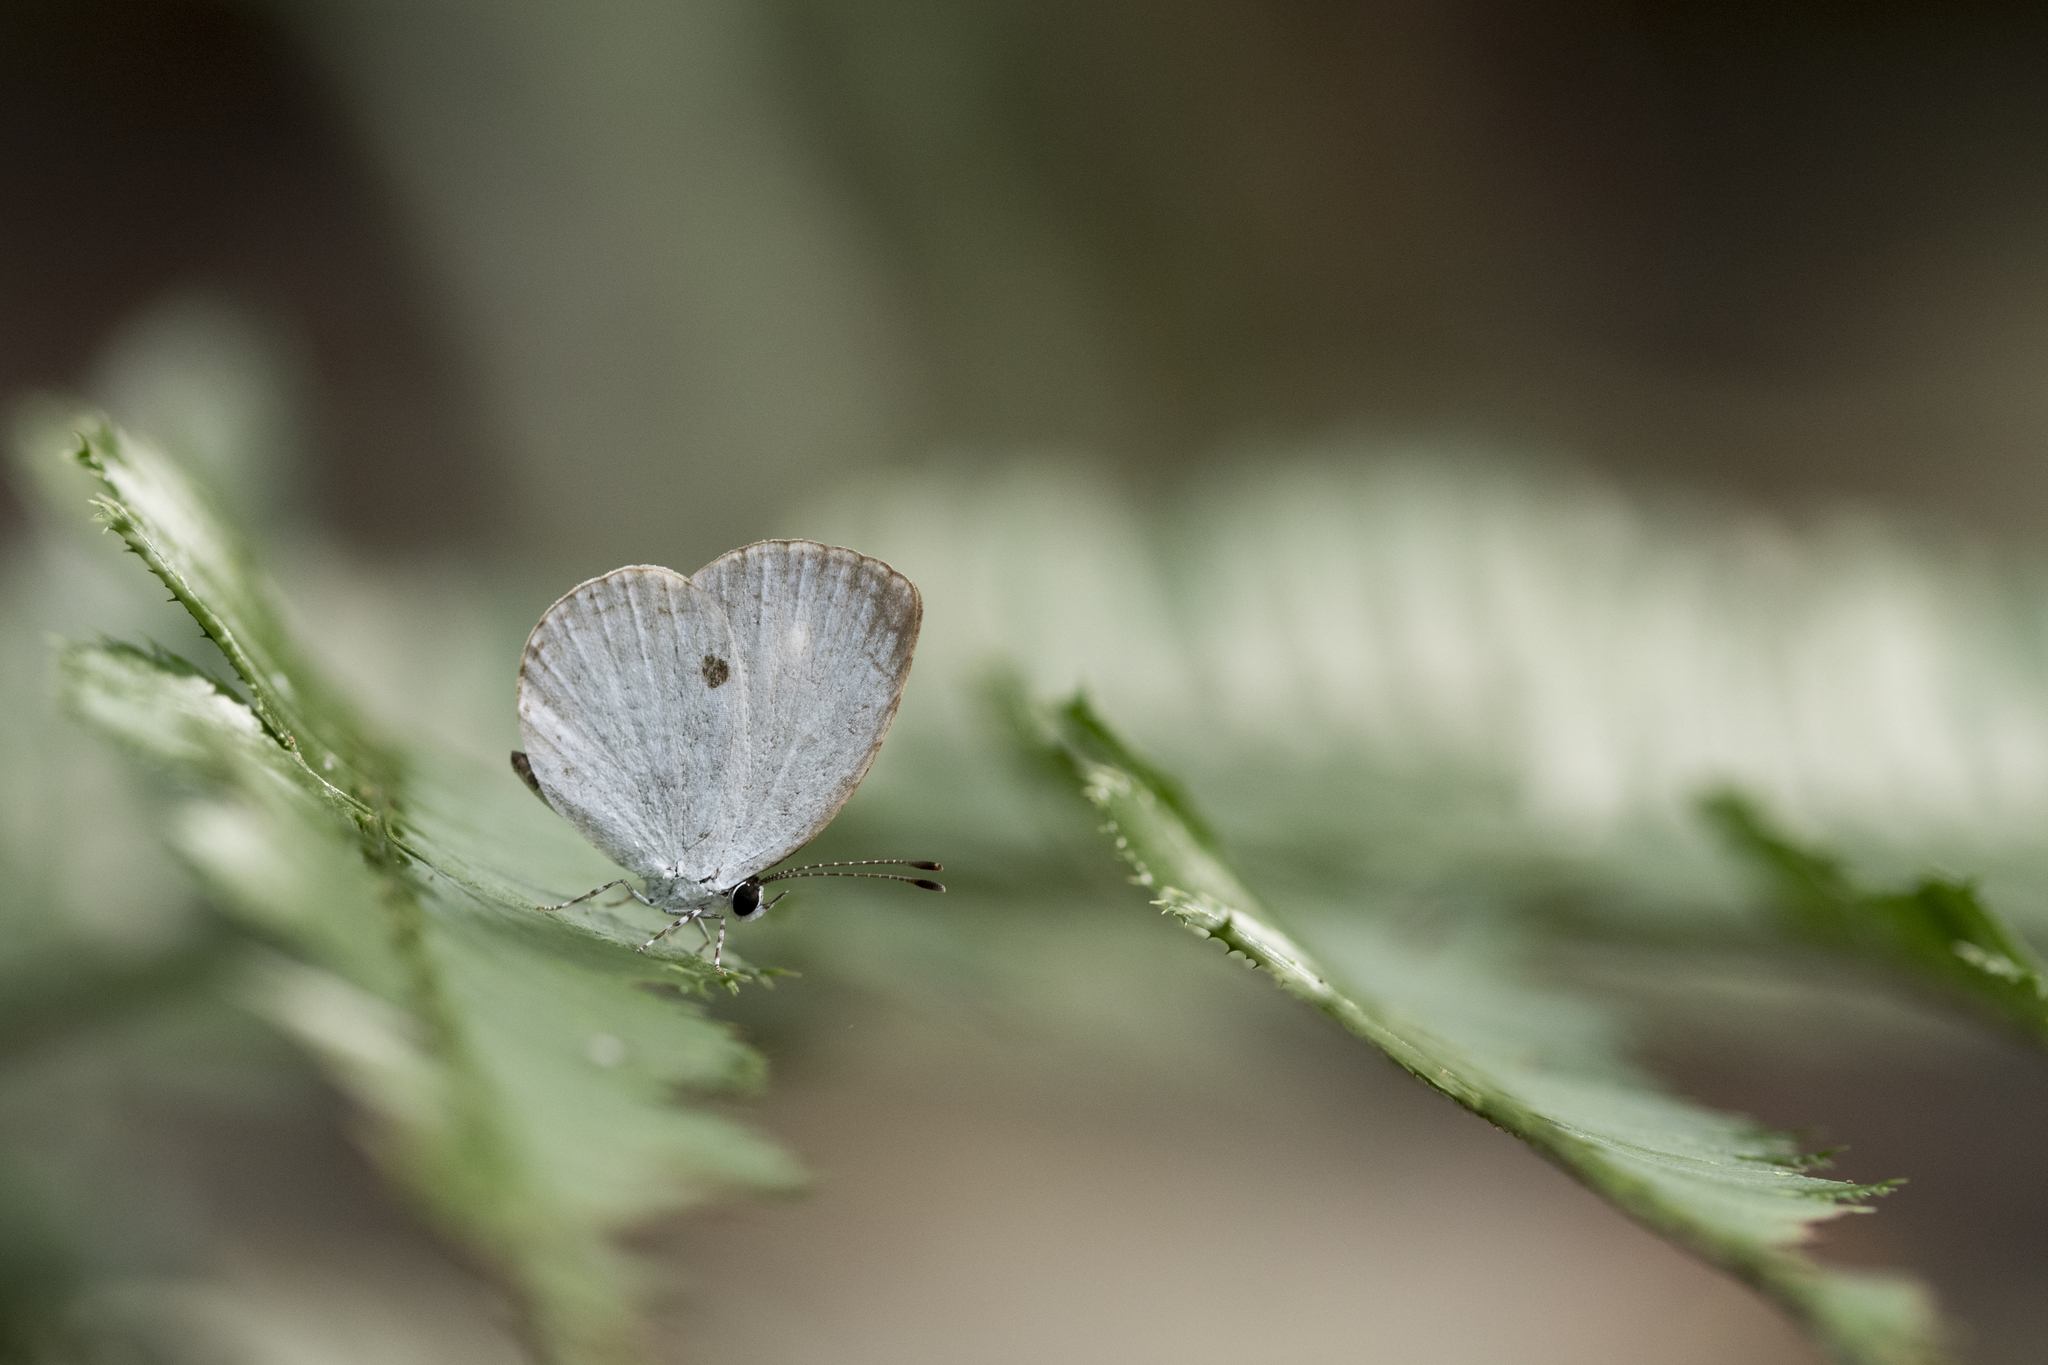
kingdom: Animalia
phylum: Arthropoda
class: Insecta
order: Lepidoptera
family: Lycaenidae
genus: Neopithecops
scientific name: Neopithecops zalmora
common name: Quaker
